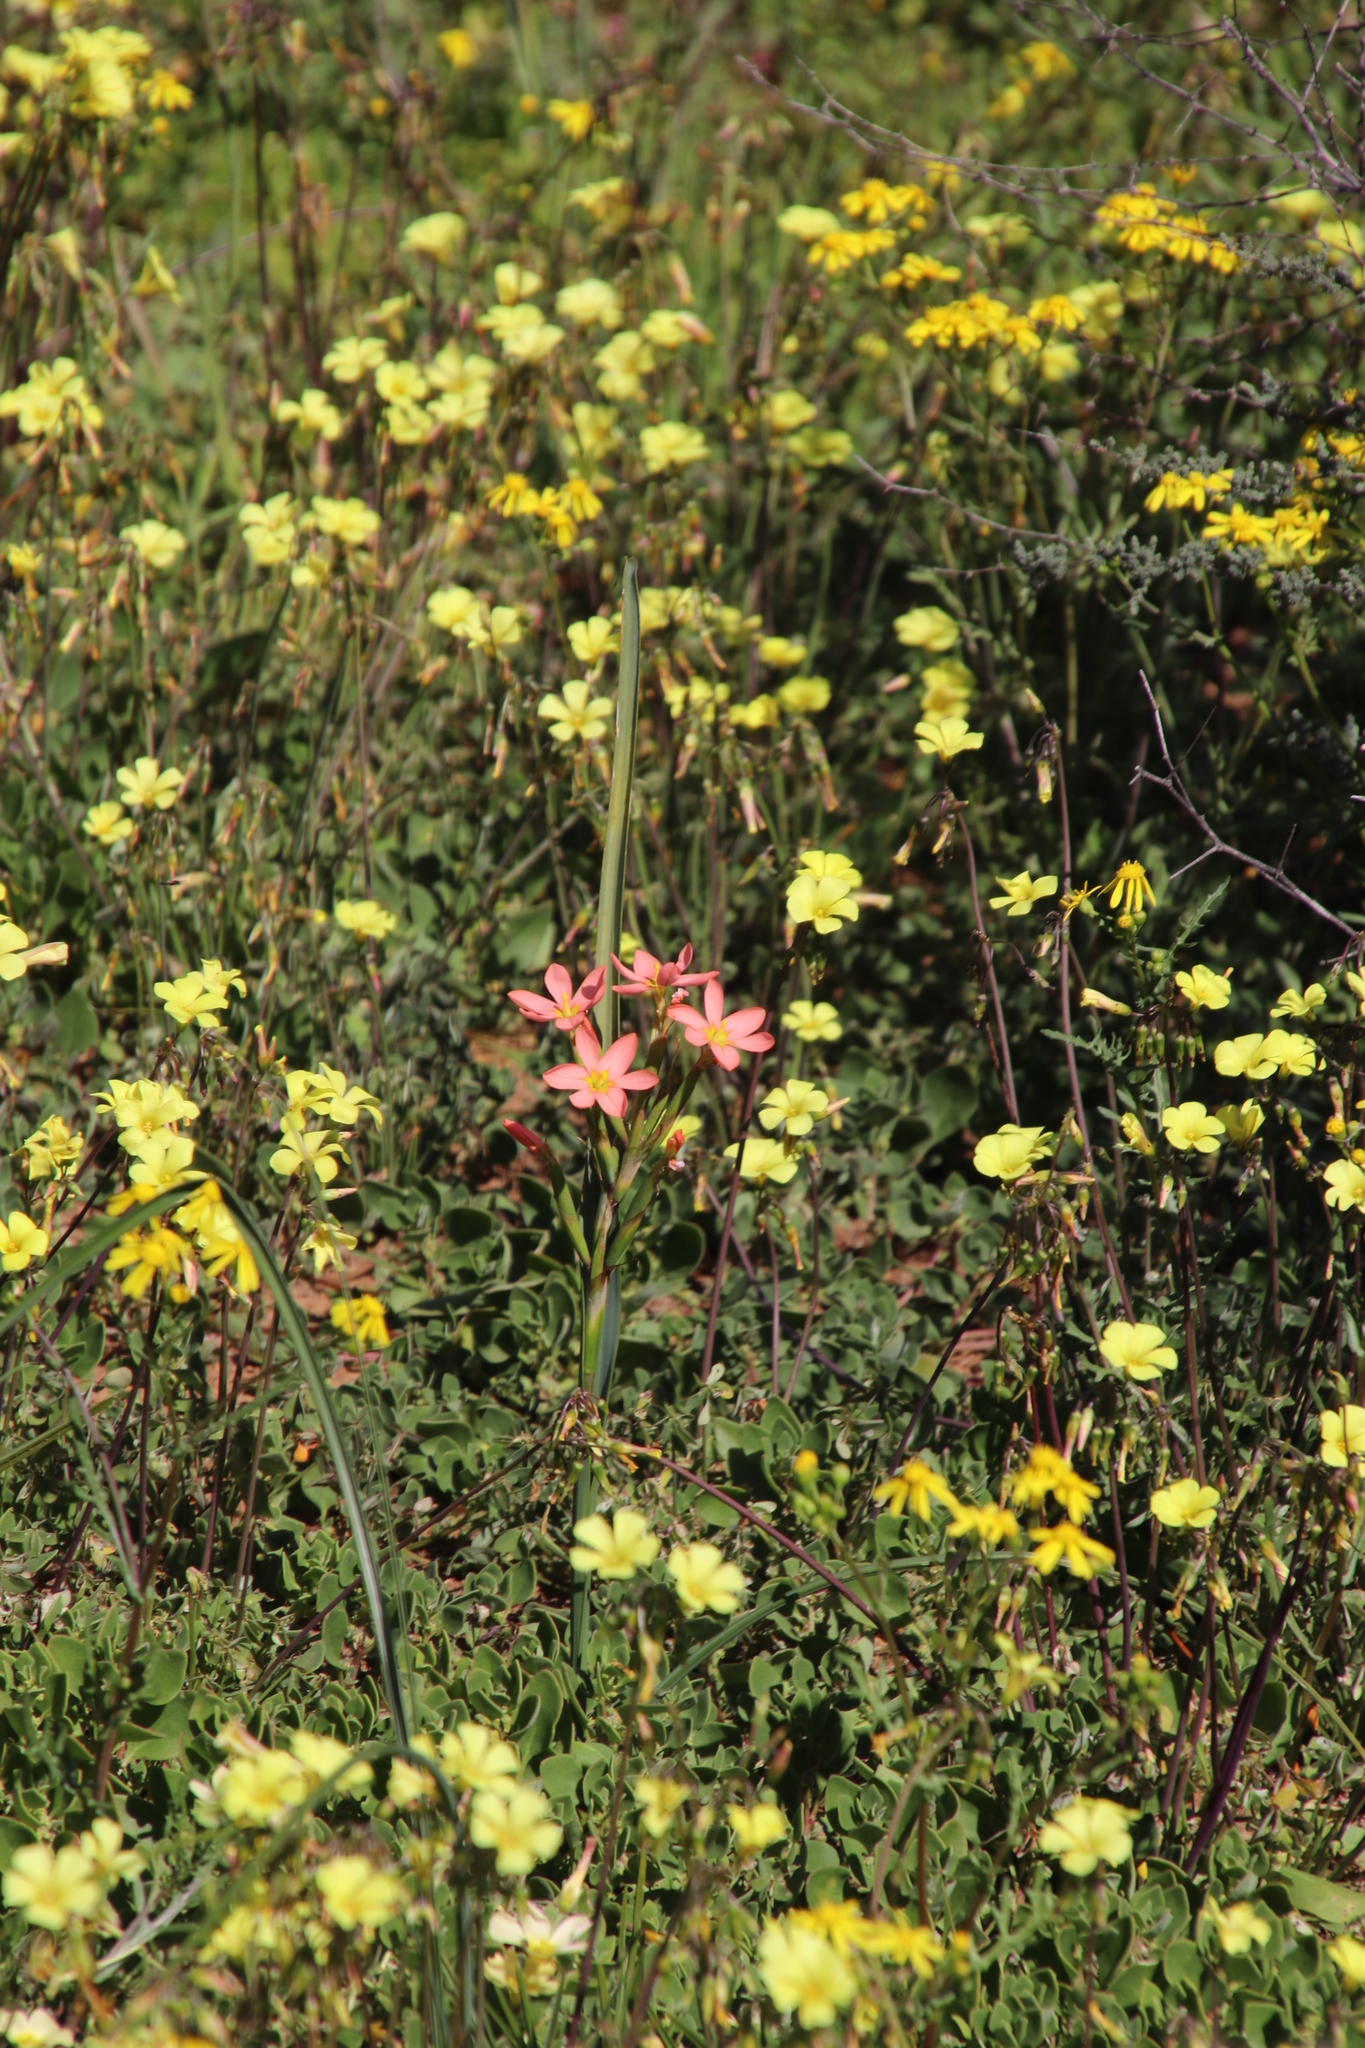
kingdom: Plantae
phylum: Tracheophyta
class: Liliopsida
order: Asparagales
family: Iridaceae
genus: Moraea
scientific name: Moraea miniata
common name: Two-leaf cape-tulip
